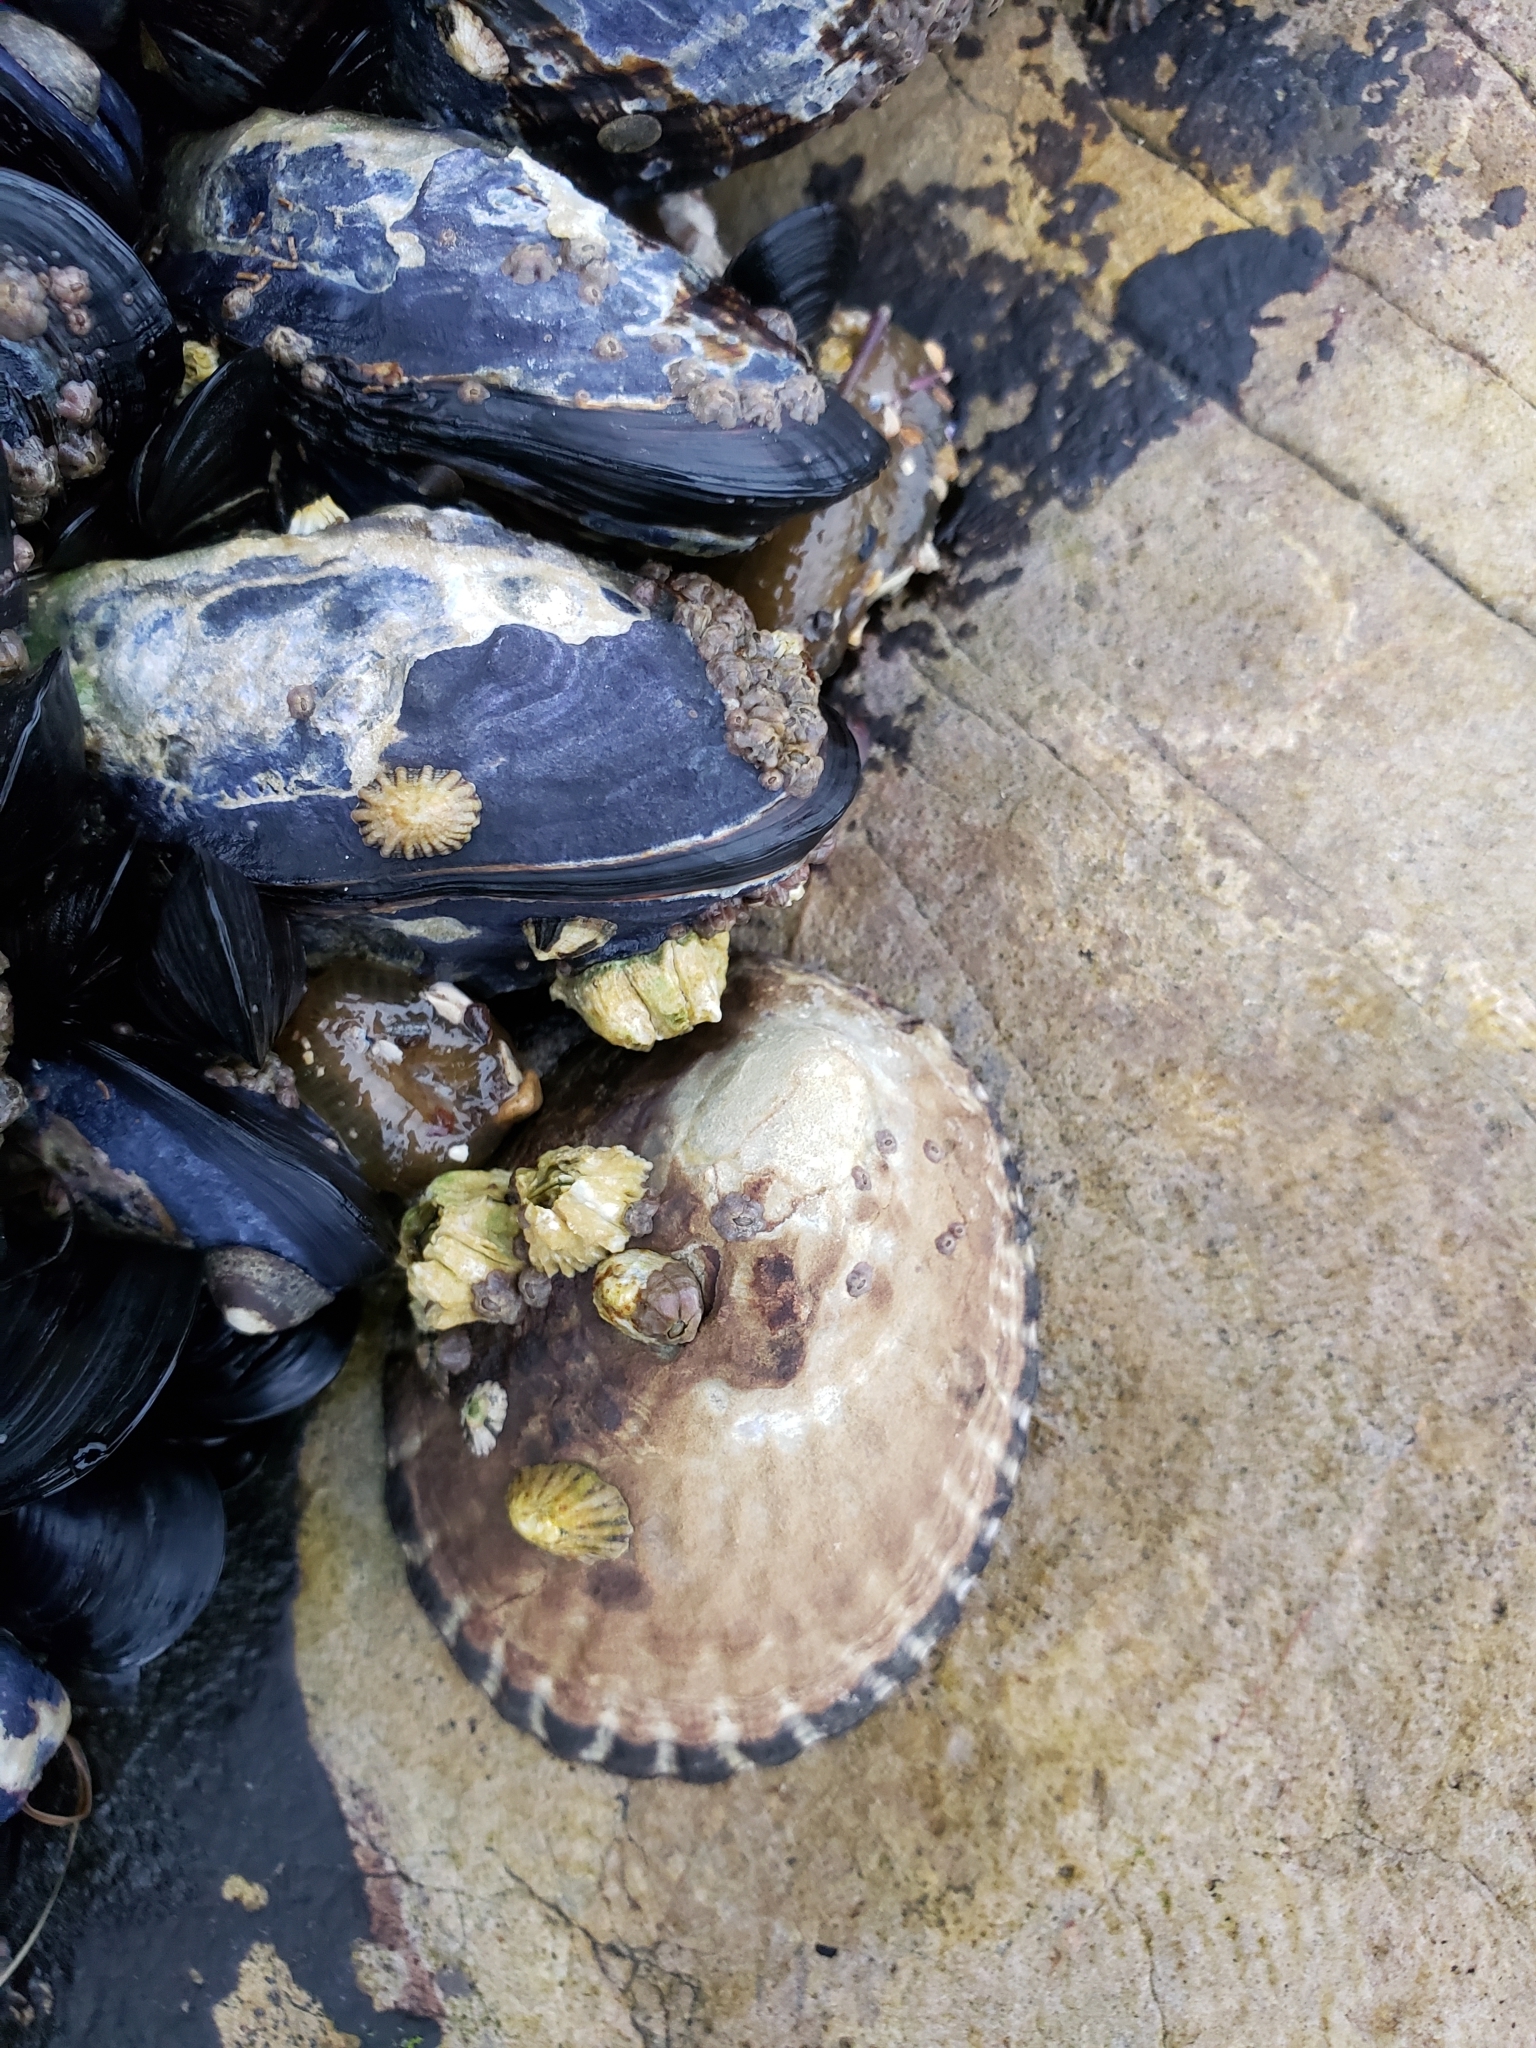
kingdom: Animalia
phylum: Mollusca
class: Gastropoda
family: Lottiidae
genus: Lottia
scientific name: Lottia gigantea
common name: Owl limpet
